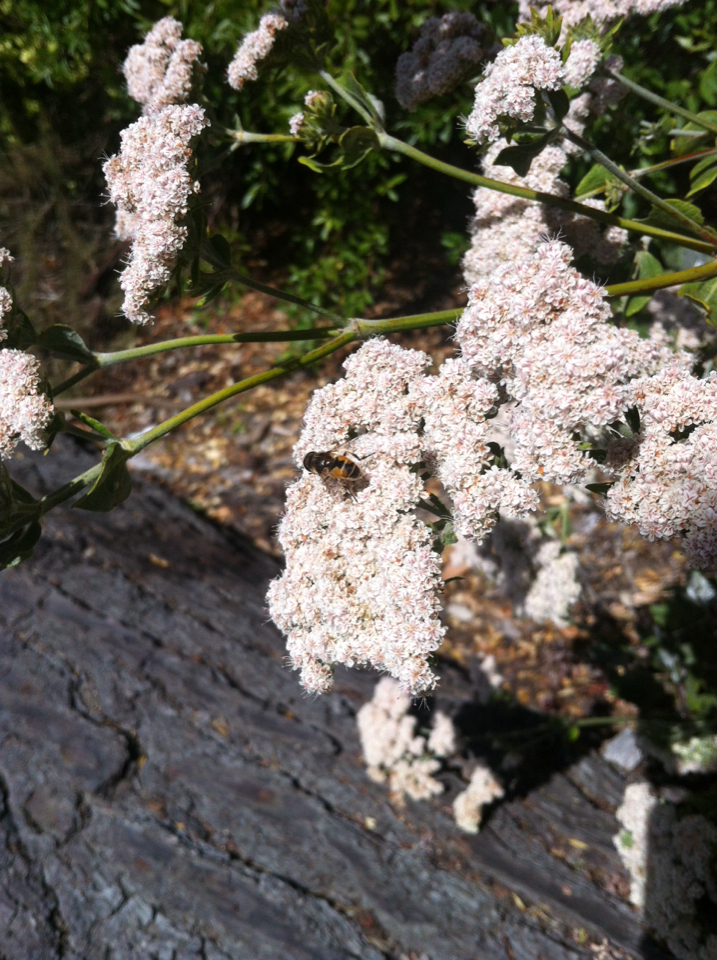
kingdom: Animalia
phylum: Arthropoda
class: Insecta
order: Diptera
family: Syrphidae
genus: Eristalis
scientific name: Eristalis arbustorum
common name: Hover fly
